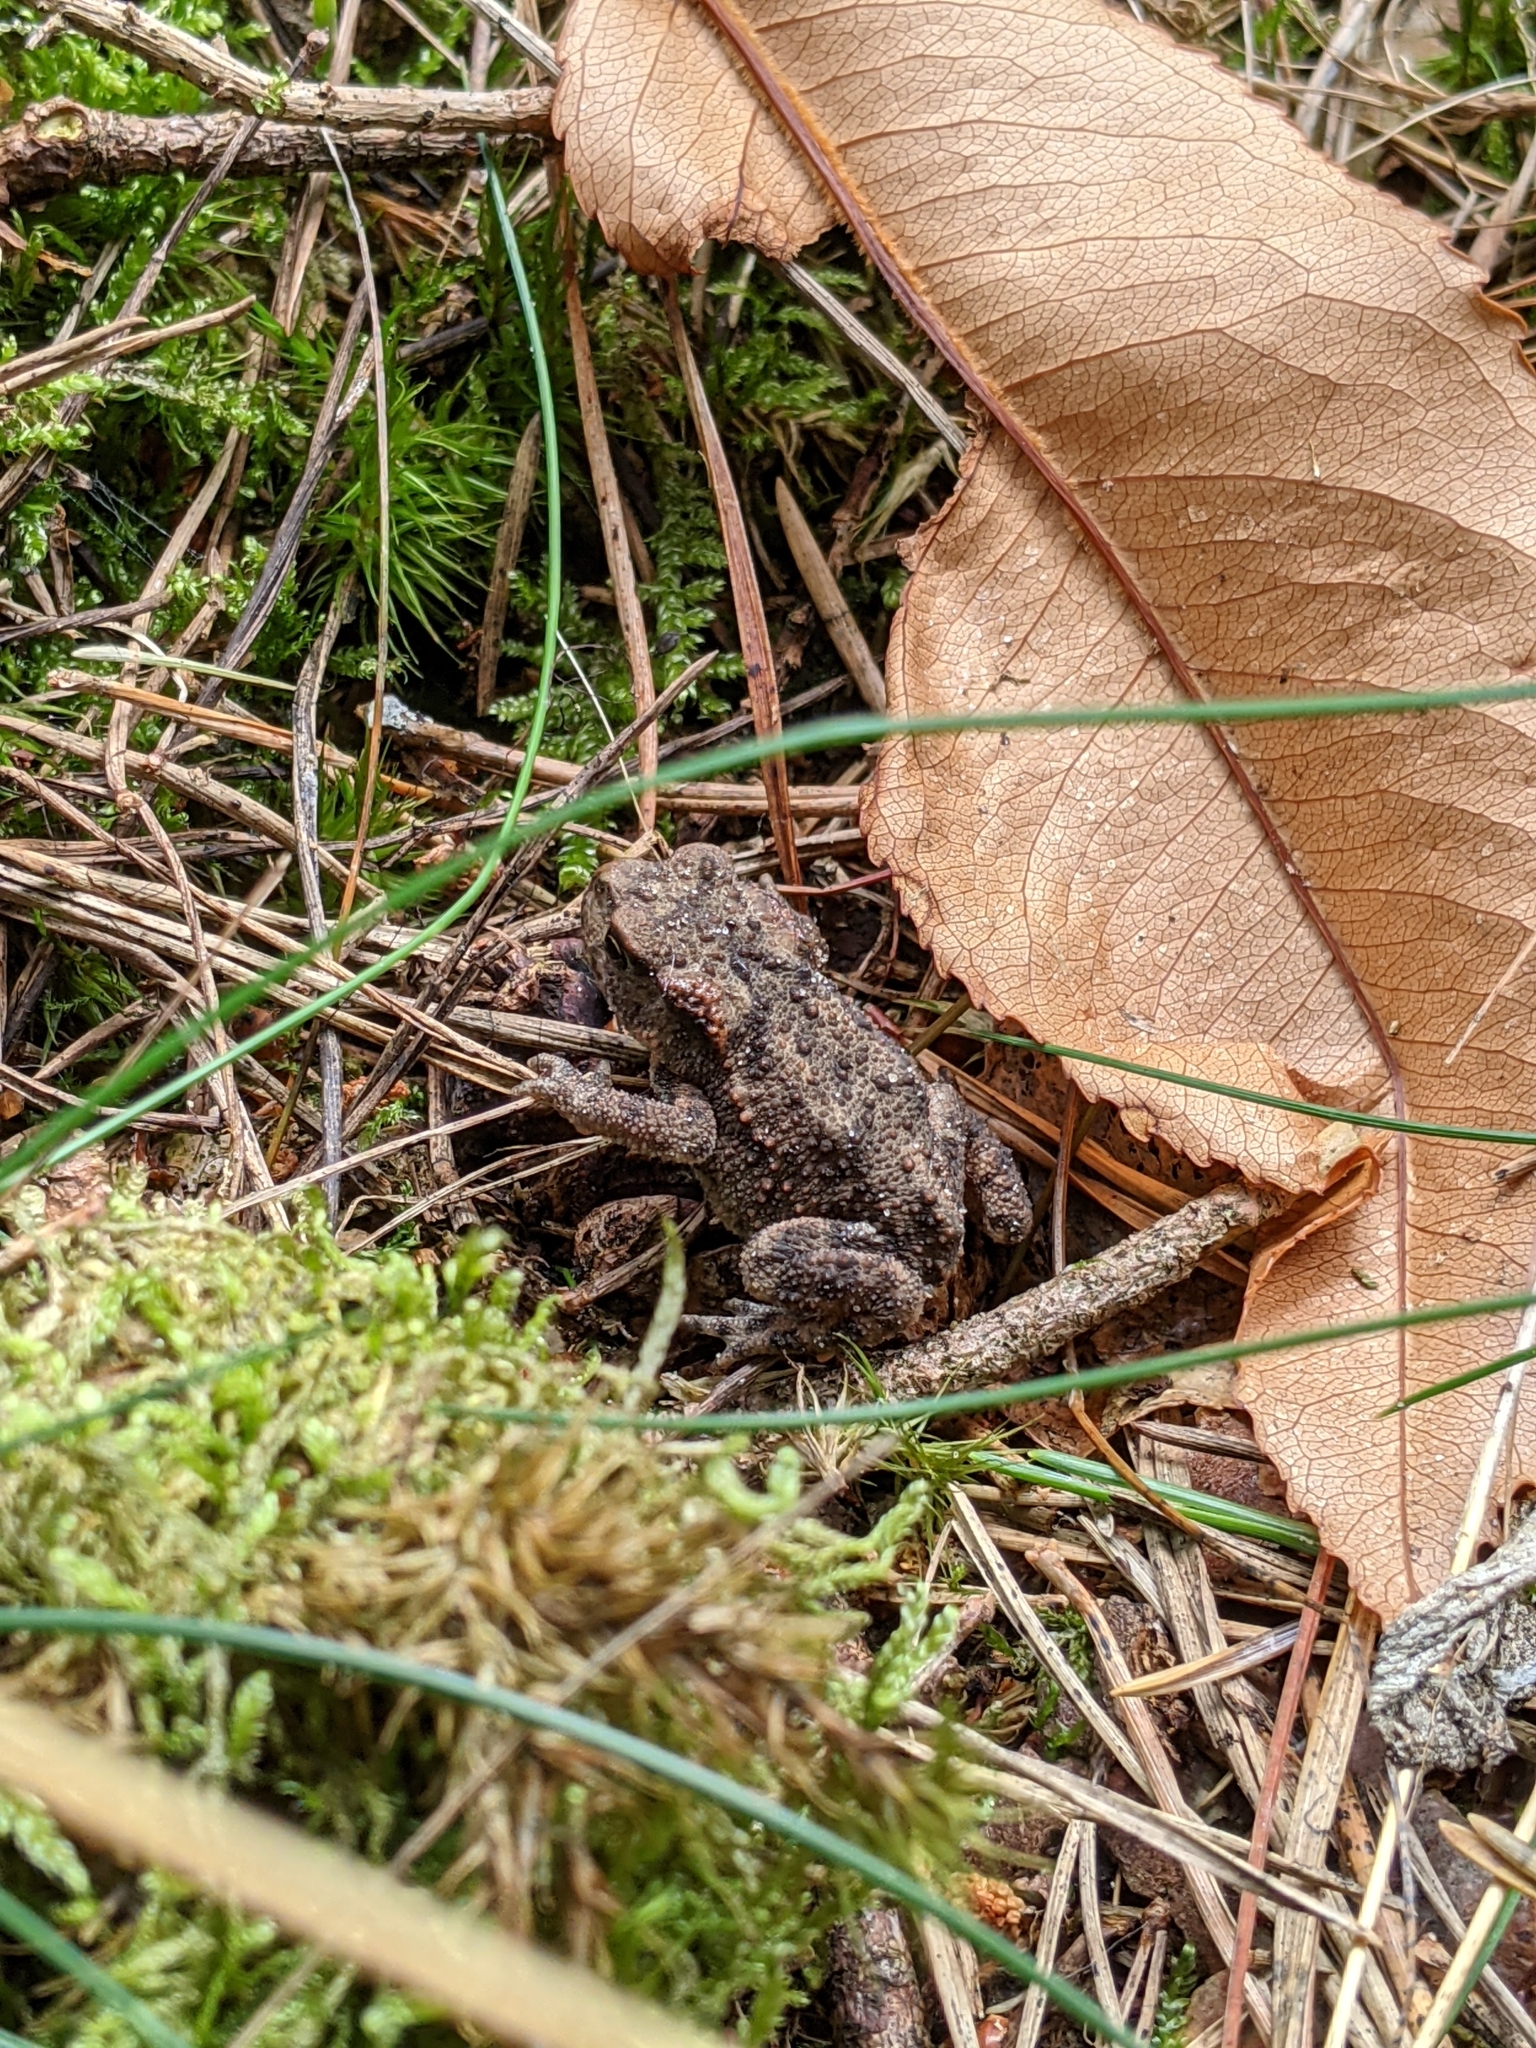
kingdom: Animalia
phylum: Chordata
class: Amphibia
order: Anura
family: Bufonidae
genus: Bufo
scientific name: Bufo bufo
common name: Common toad
